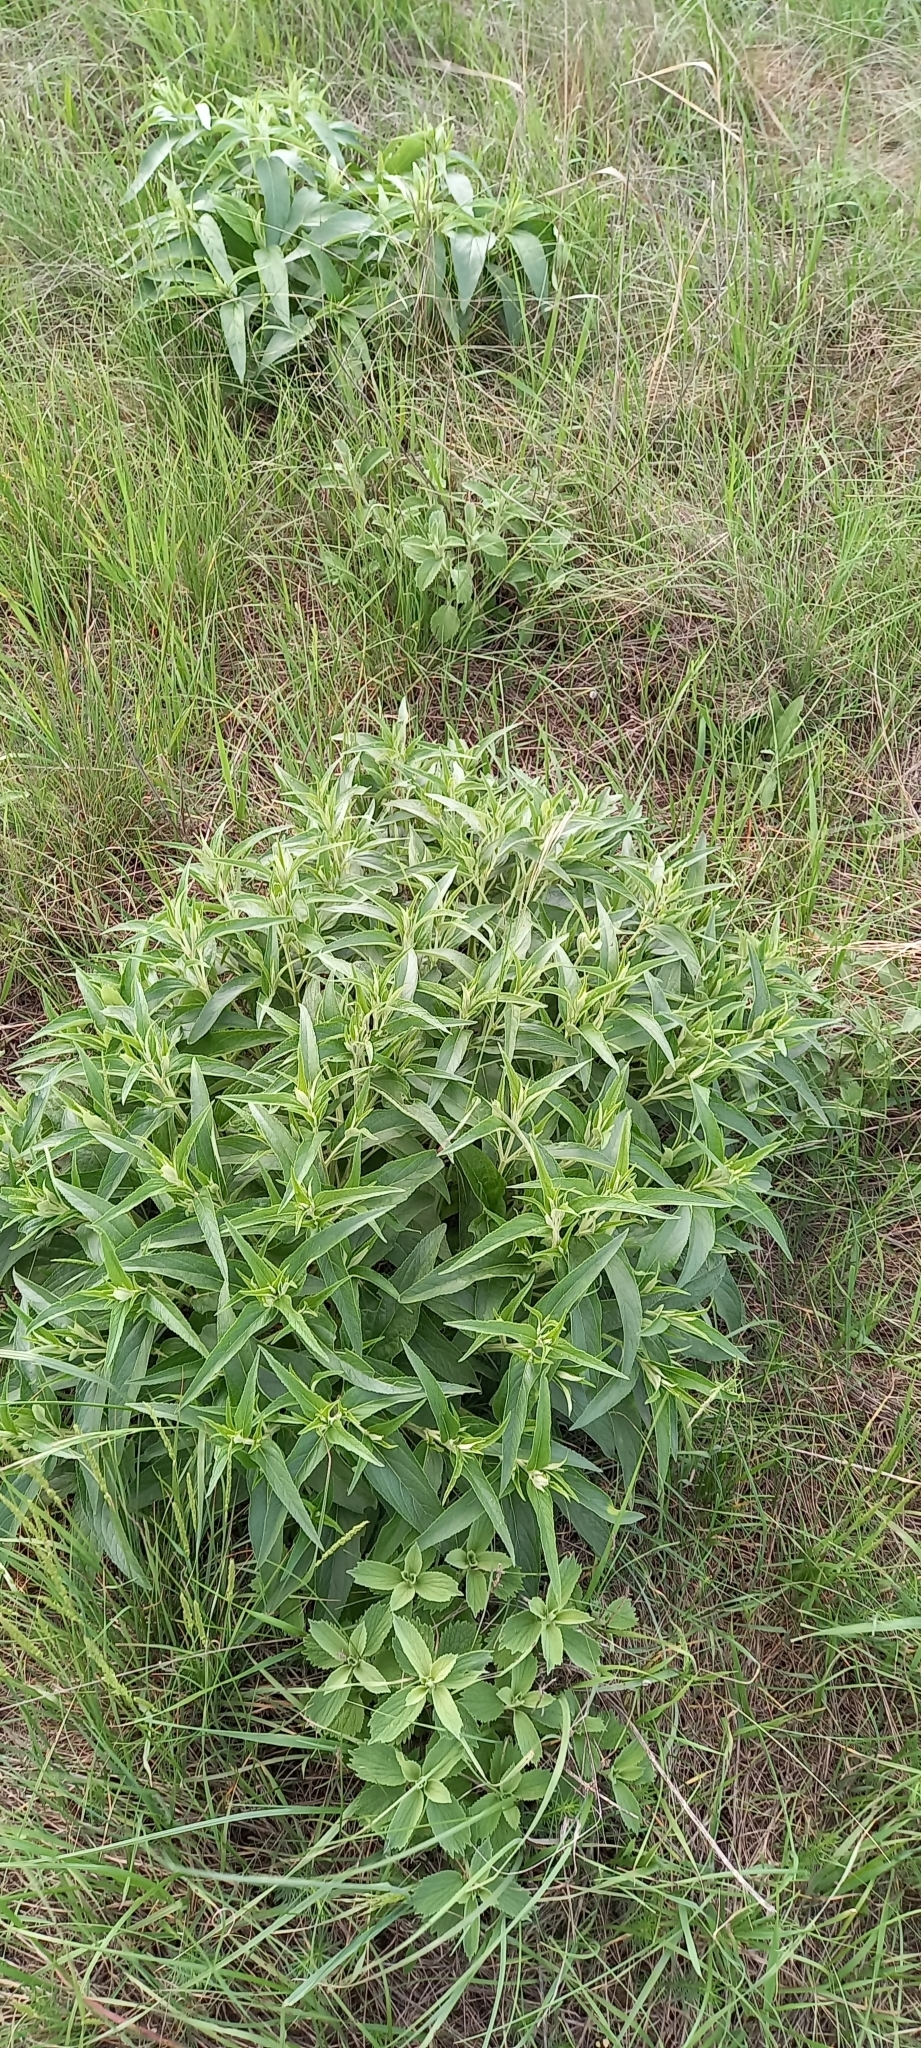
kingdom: Plantae
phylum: Tracheophyta
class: Magnoliopsida
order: Lamiales
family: Lamiaceae
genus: Phlomis
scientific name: Phlomis herba-venti
